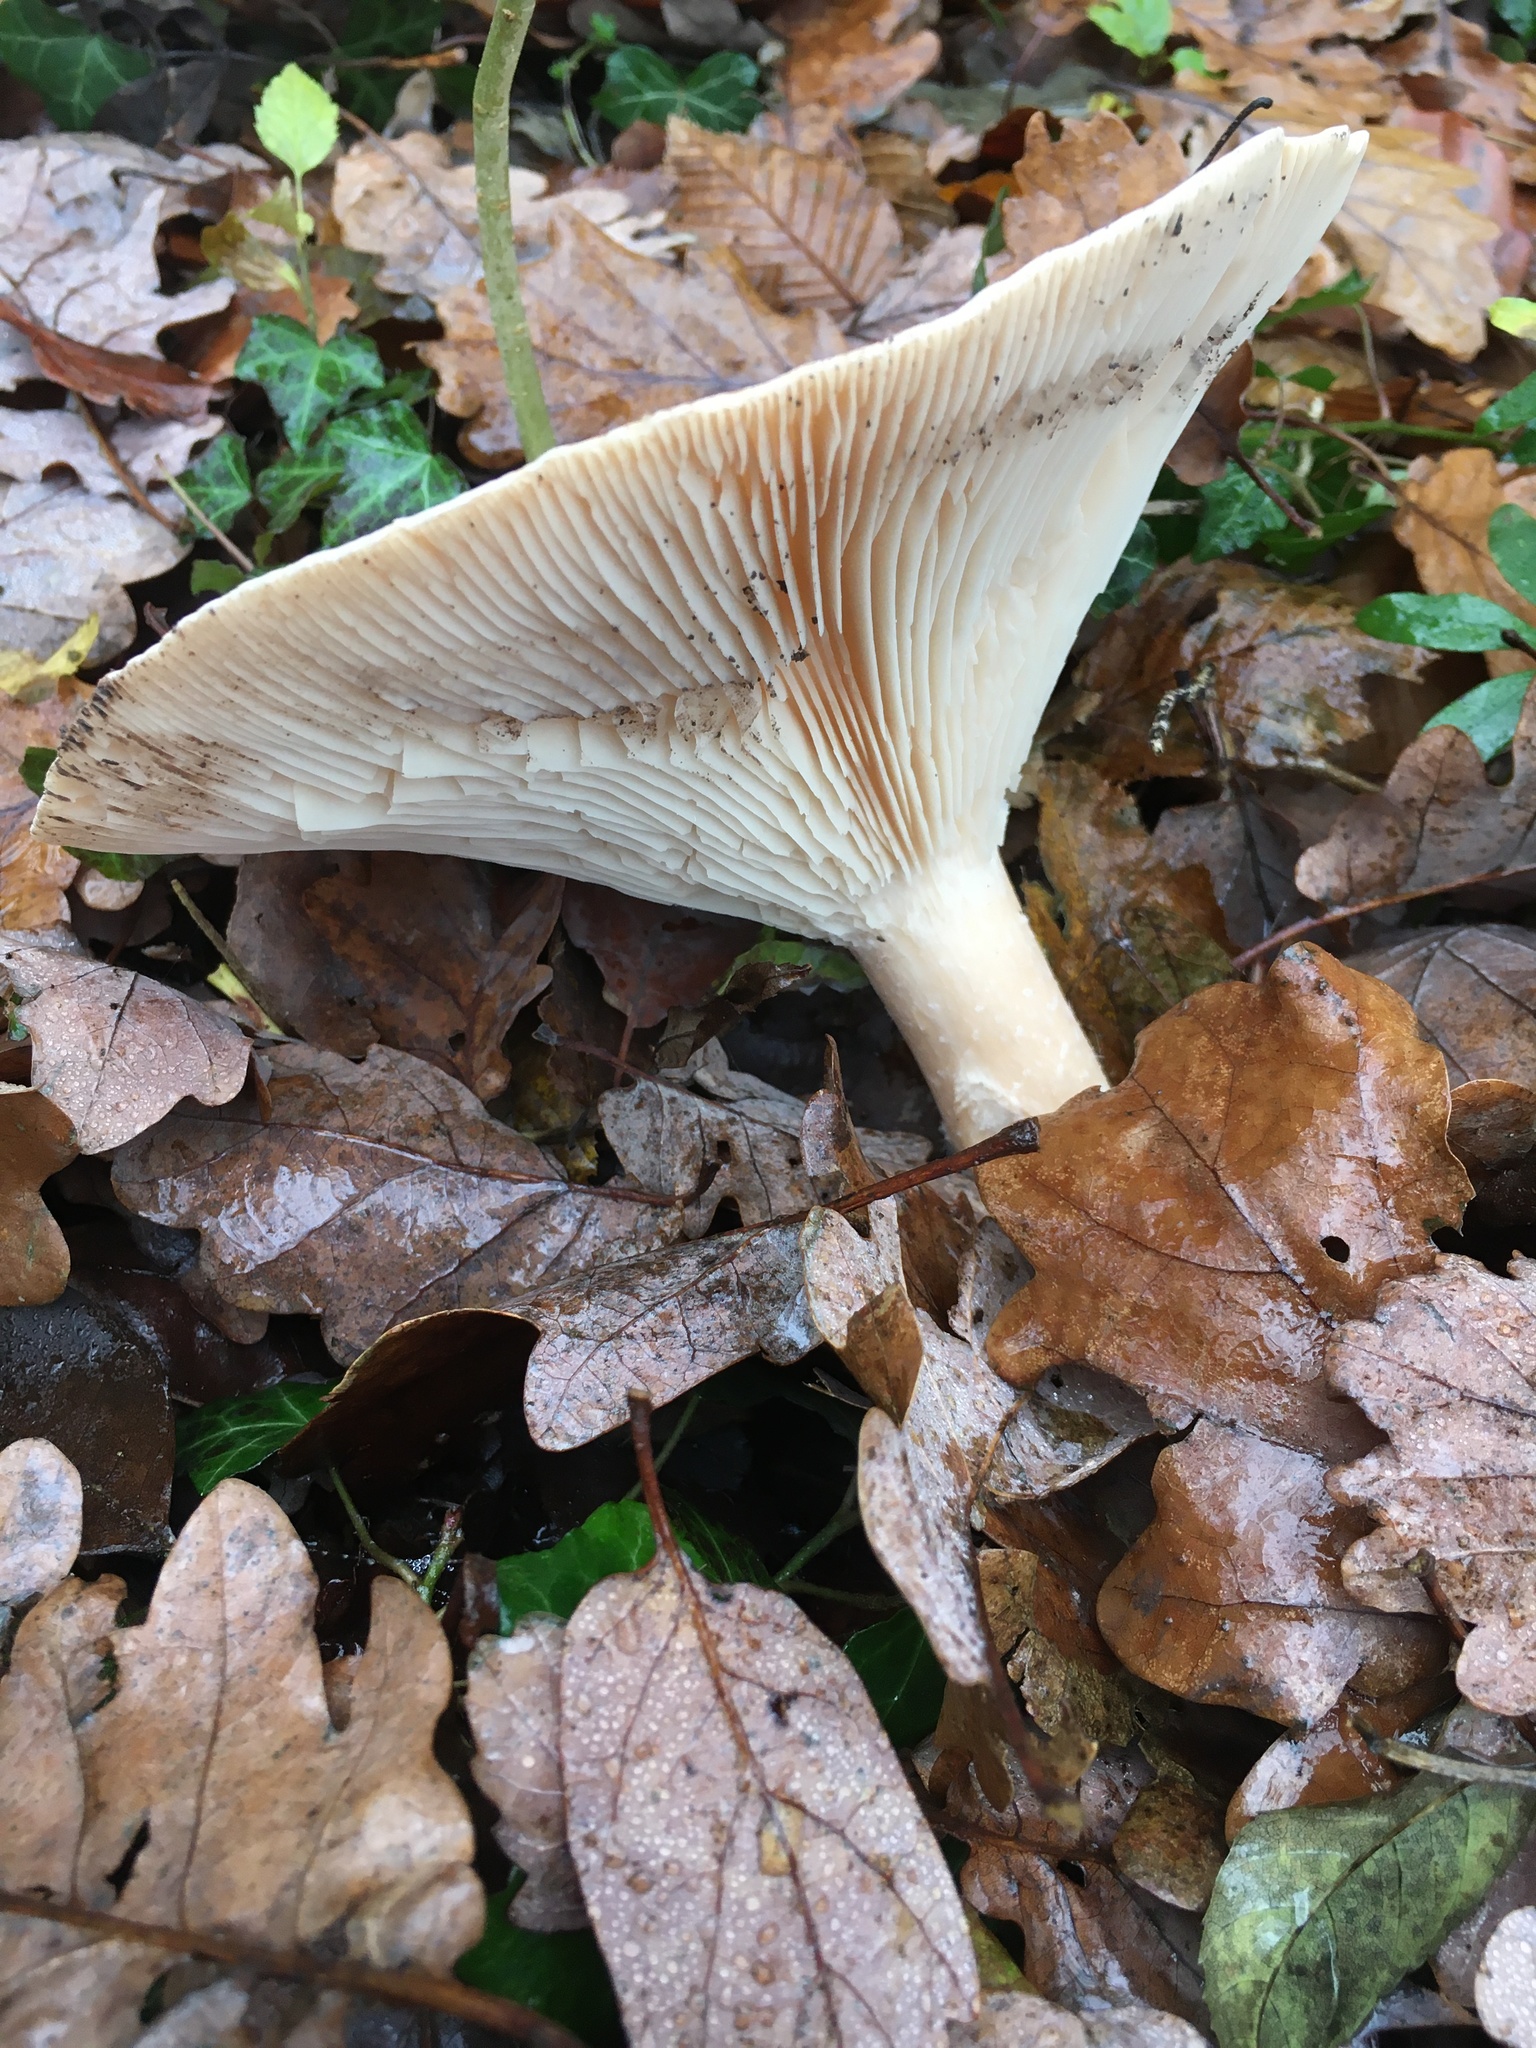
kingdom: Fungi
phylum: Basidiomycota
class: Agaricomycetes
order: Agaricales
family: Tricholomataceae
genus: Infundibulicybe
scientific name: Infundibulicybe geotropa
